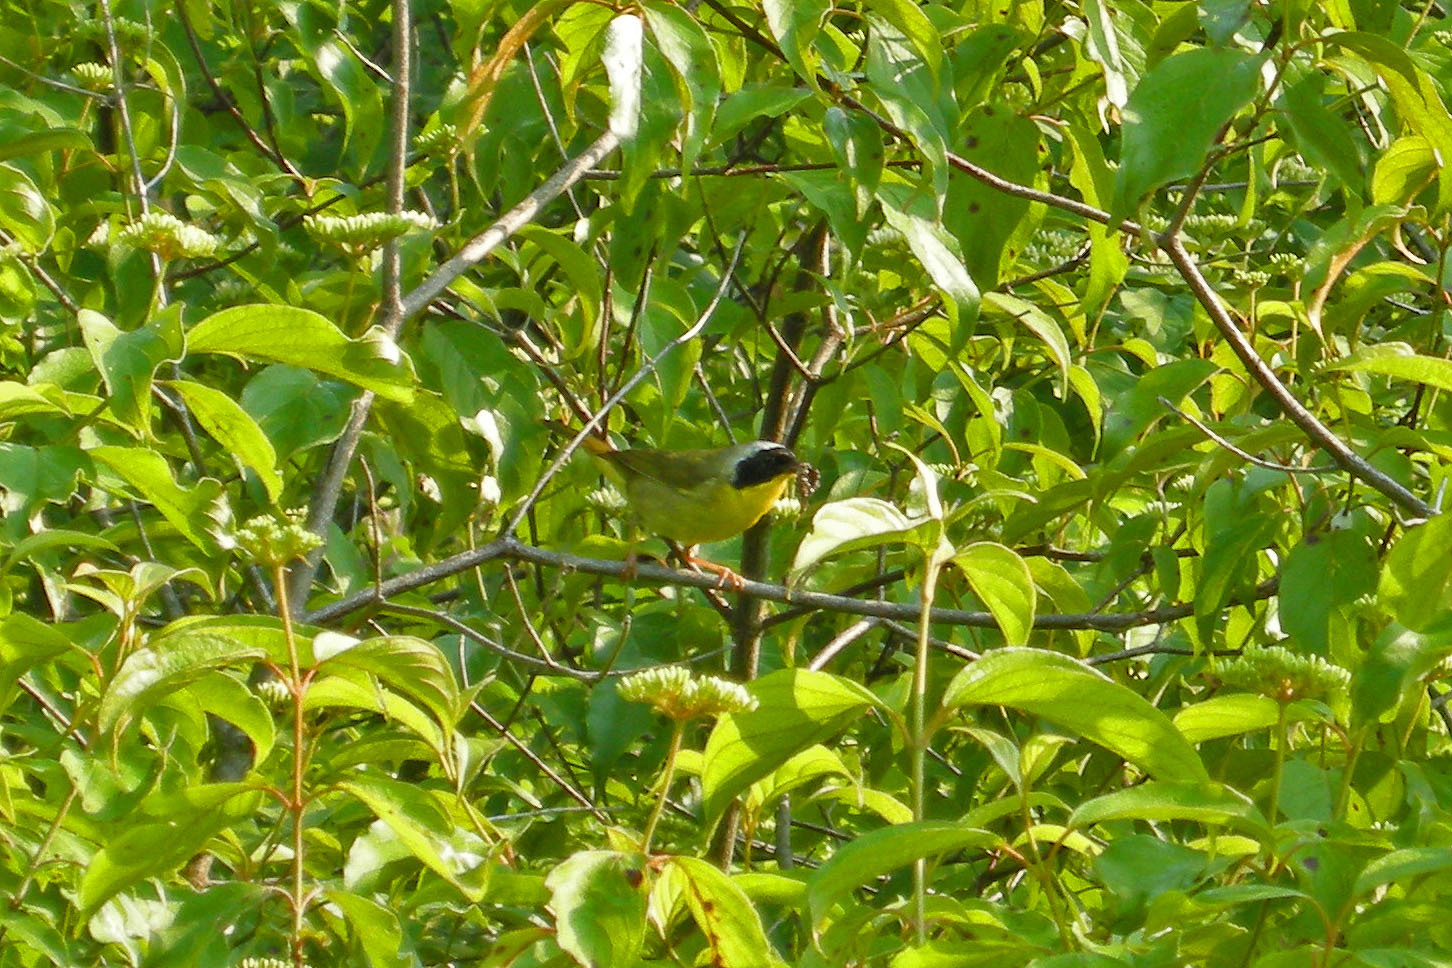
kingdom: Animalia
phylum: Chordata
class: Aves
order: Passeriformes
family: Parulidae
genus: Geothlypis
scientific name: Geothlypis trichas
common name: Common yellowthroat
